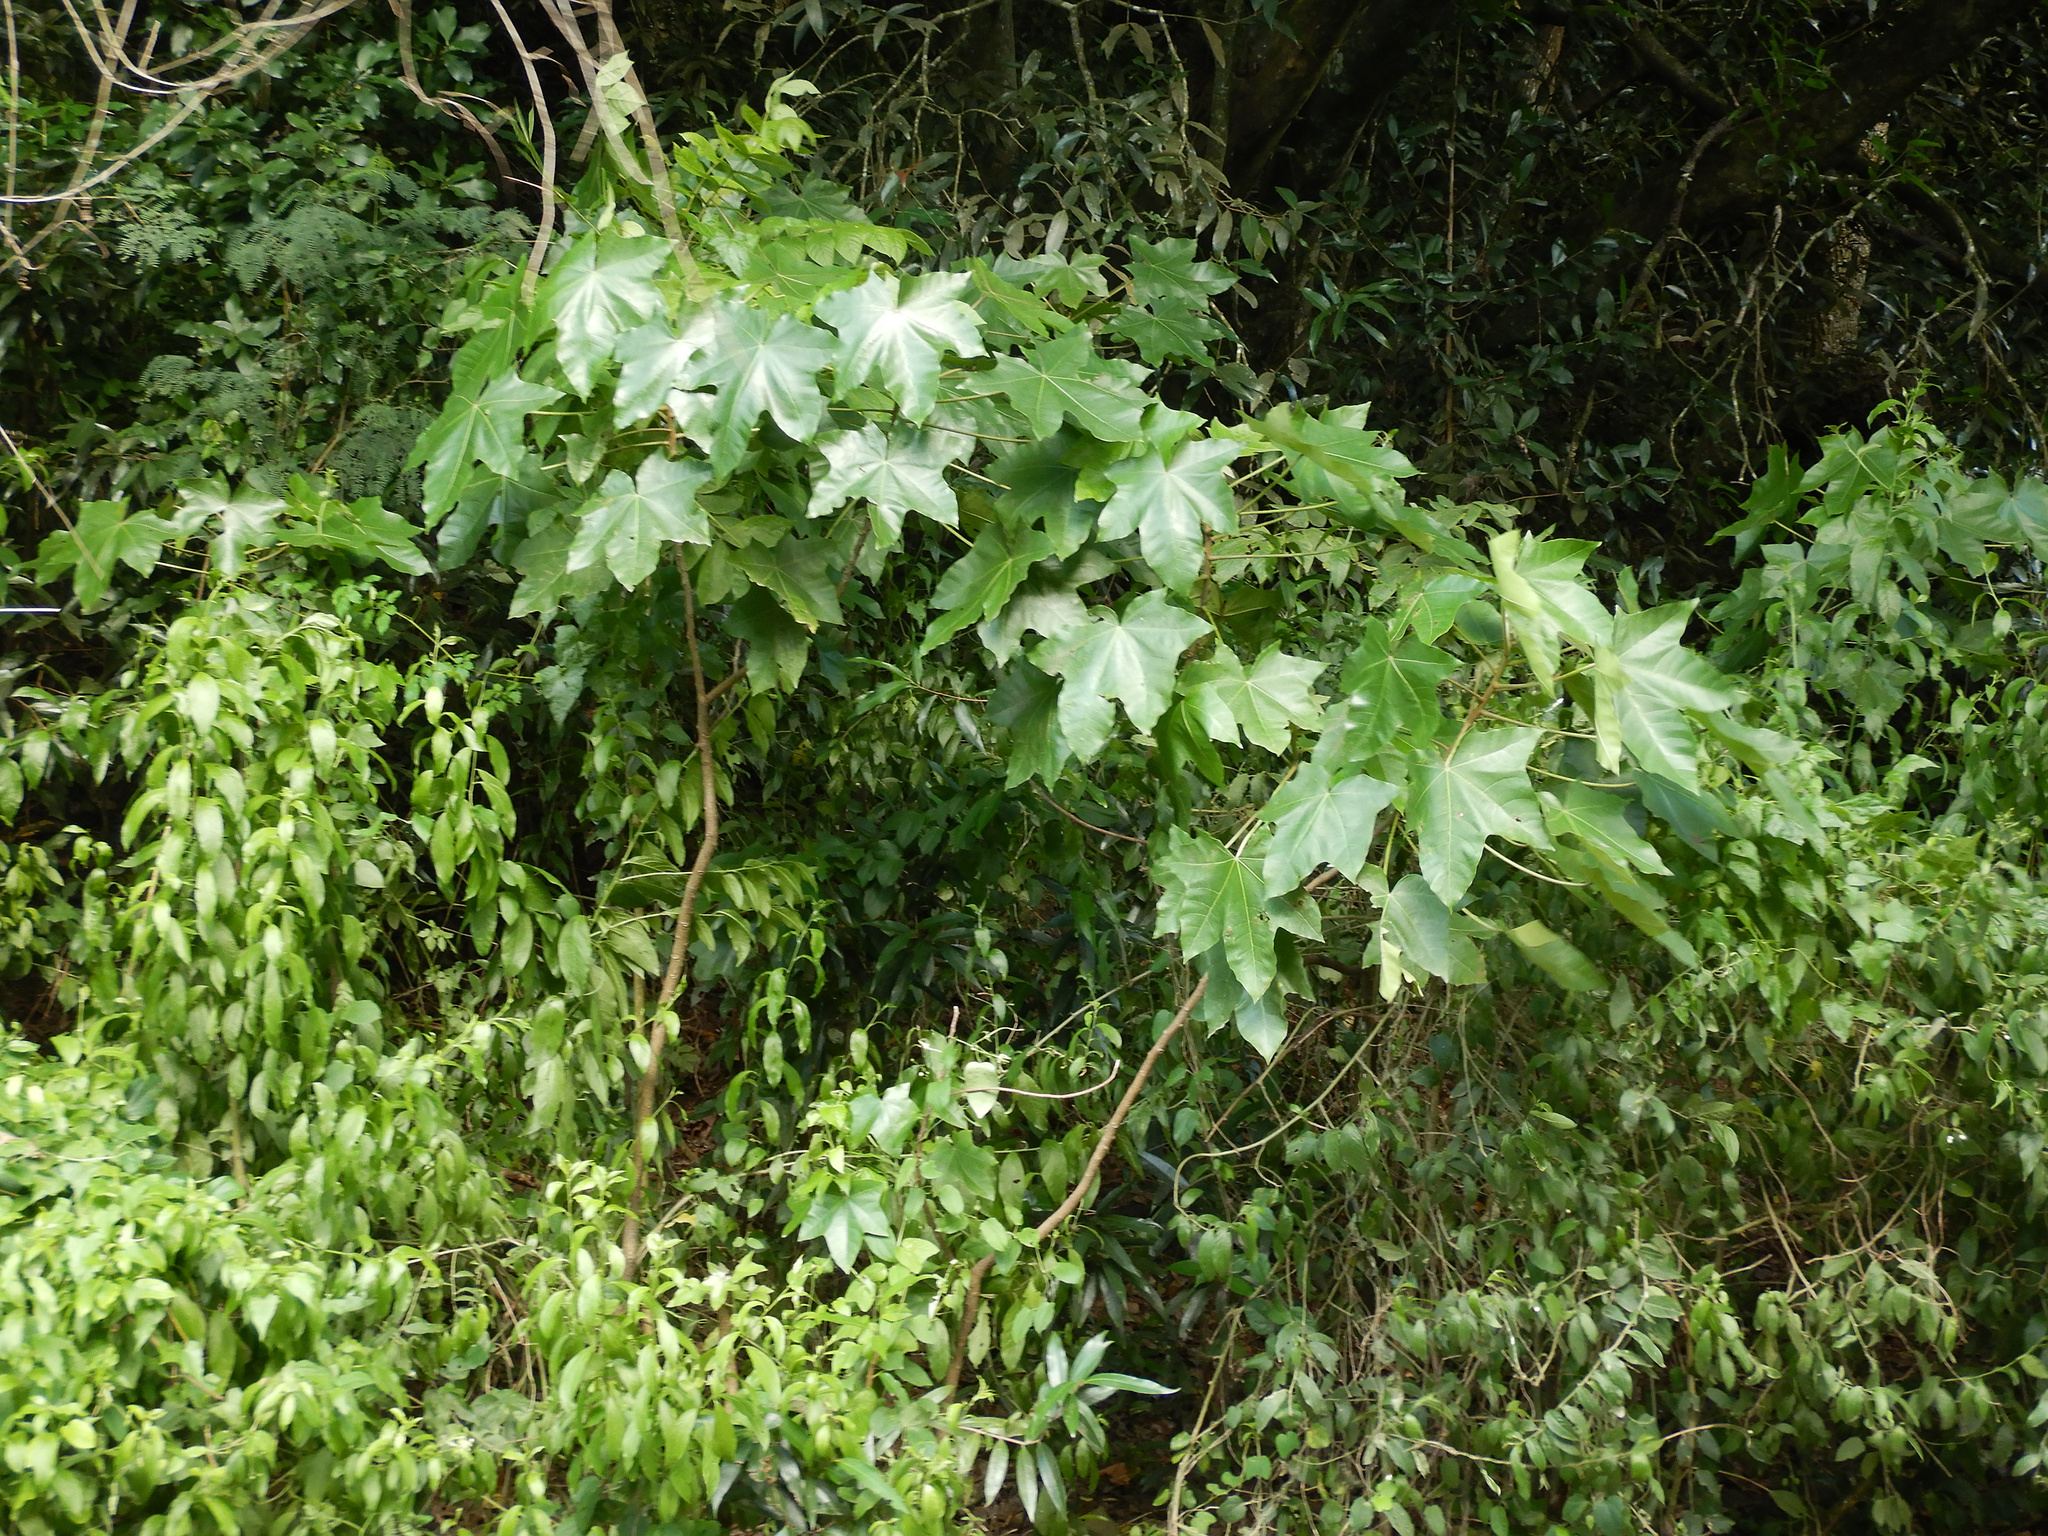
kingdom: Plantae
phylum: Tracheophyta
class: Magnoliopsida
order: Malpighiales
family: Euphorbiaceae
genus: Aleurites
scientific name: Aleurites moluccanus
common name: Candlenut tree
